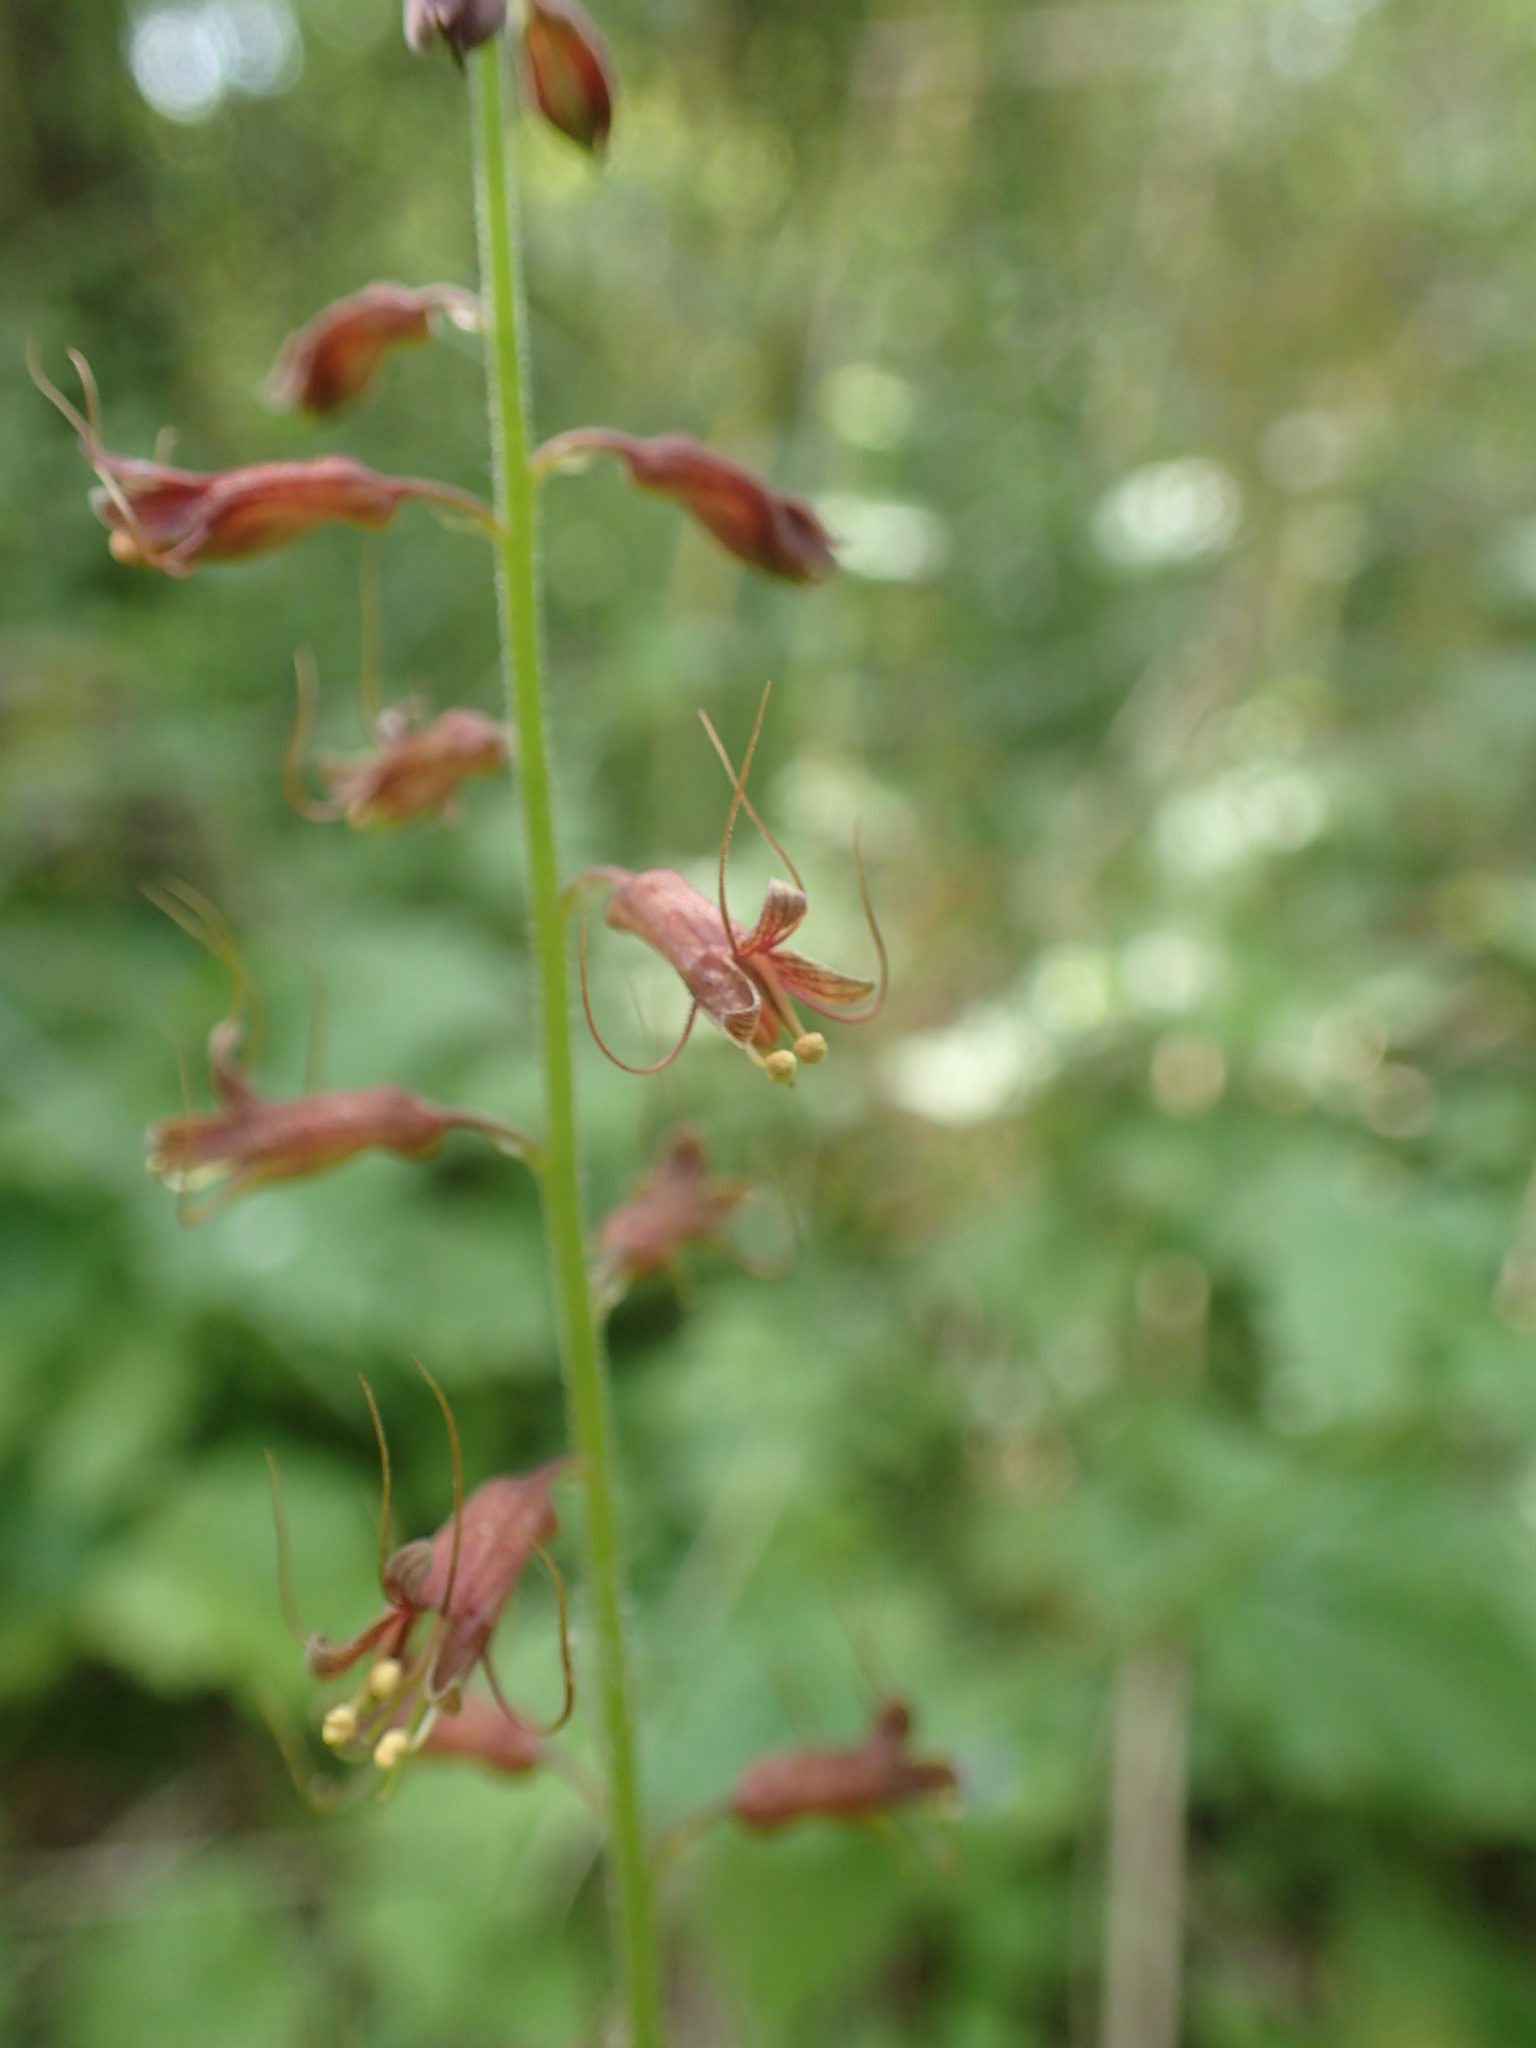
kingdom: Plantae
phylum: Tracheophyta
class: Magnoliopsida
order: Saxifragales
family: Saxifragaceae
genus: Tolmiea
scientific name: Tolmiea menziesii
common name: Pick-a-back-plant
